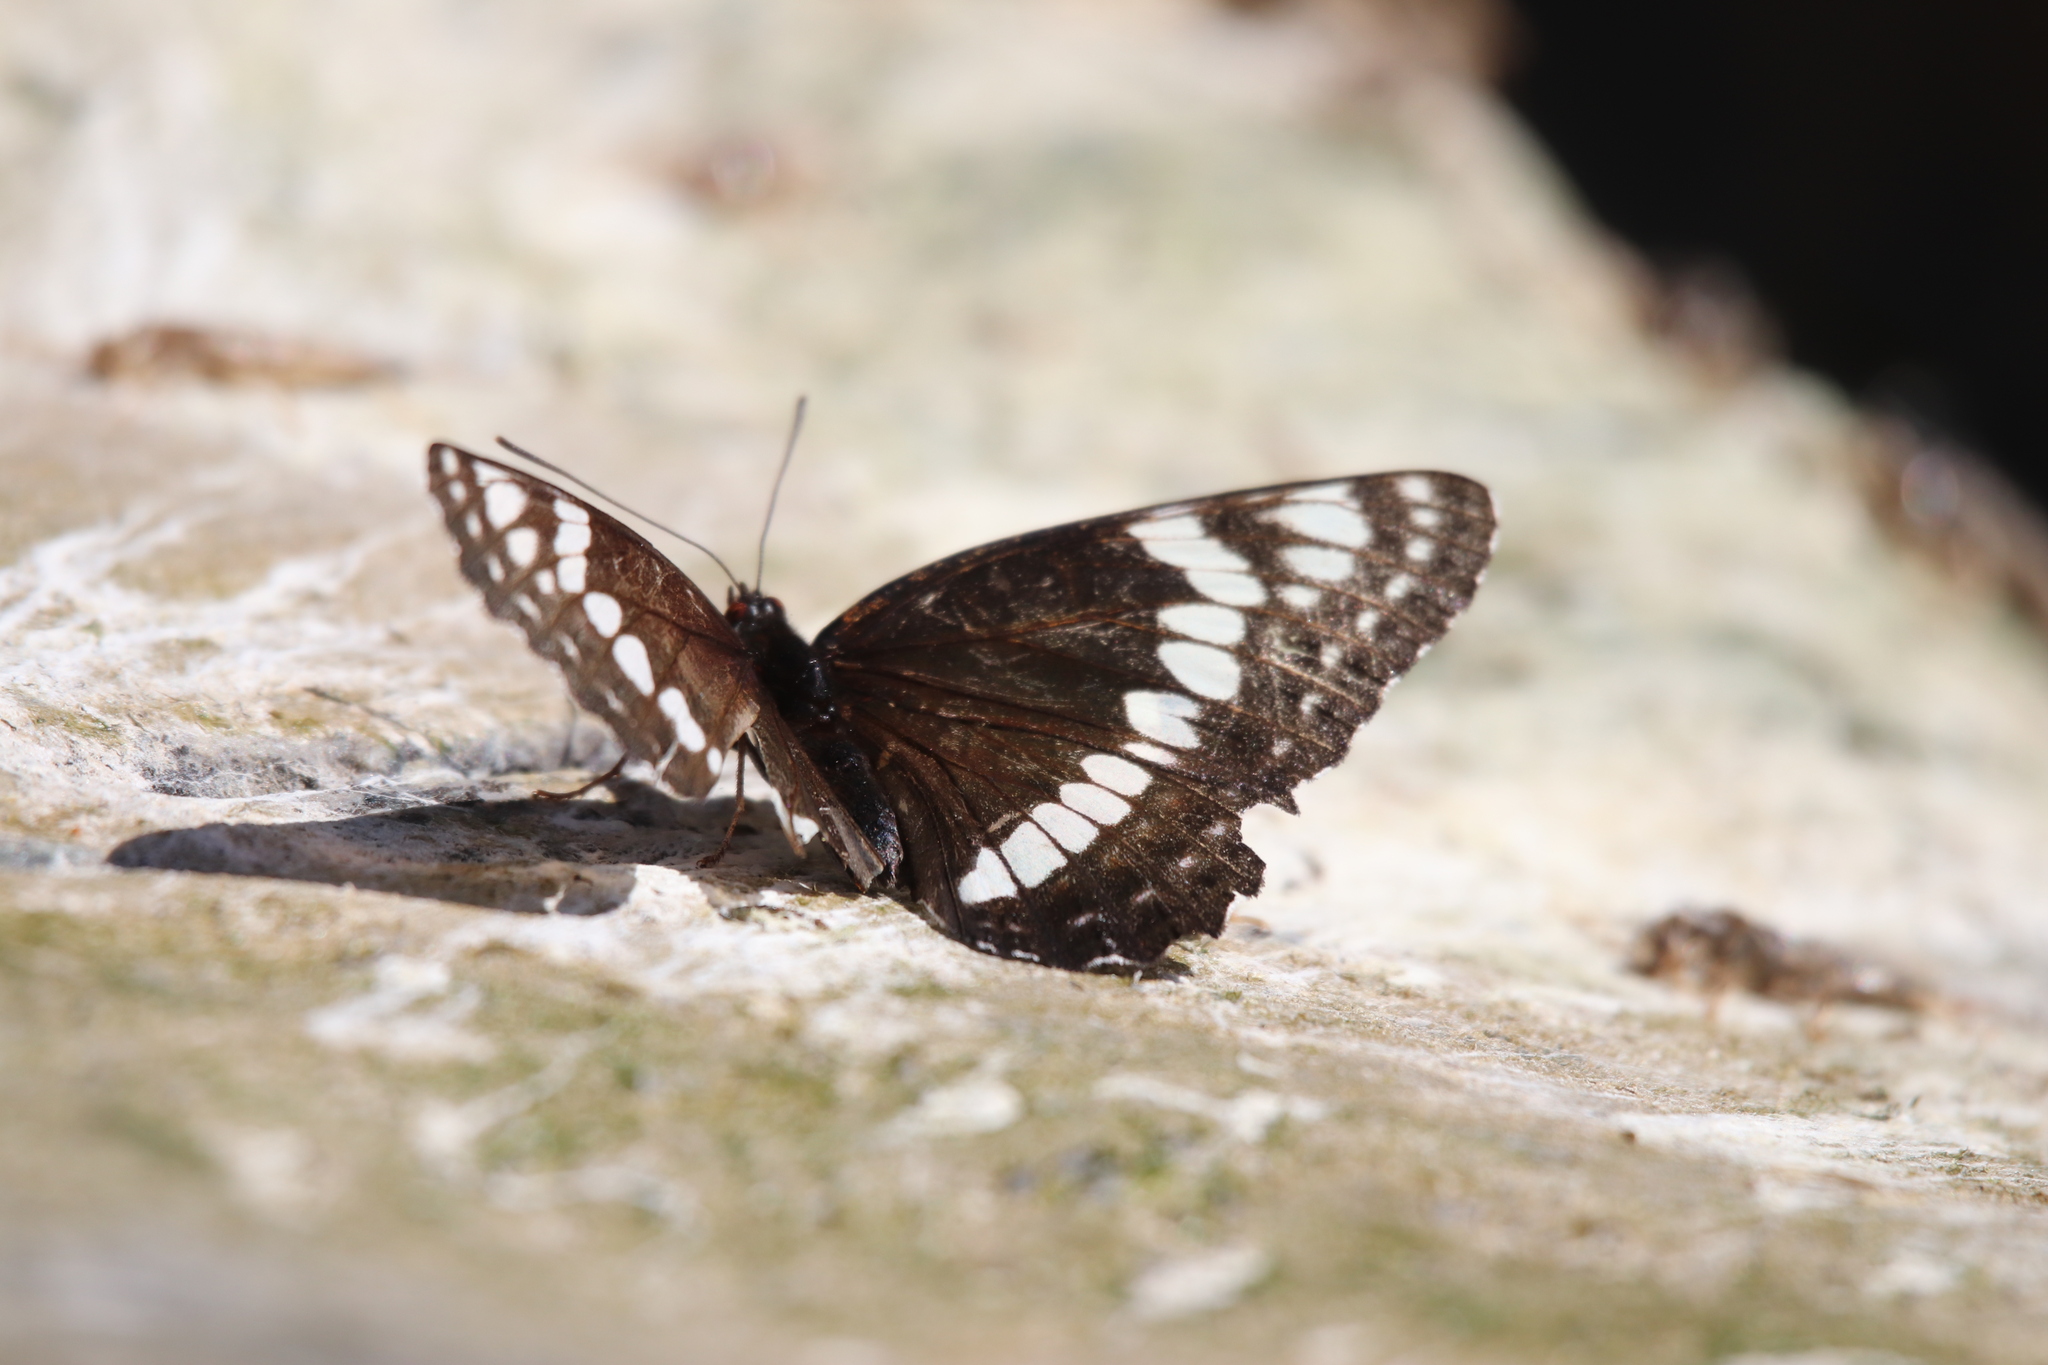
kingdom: Animalia
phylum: Arthropoda
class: Insecta
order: Lepidoptera
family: Nymphalidae
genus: Limenitis
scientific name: Limenitis weidemeyerii
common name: Weidemeyer's admiral
